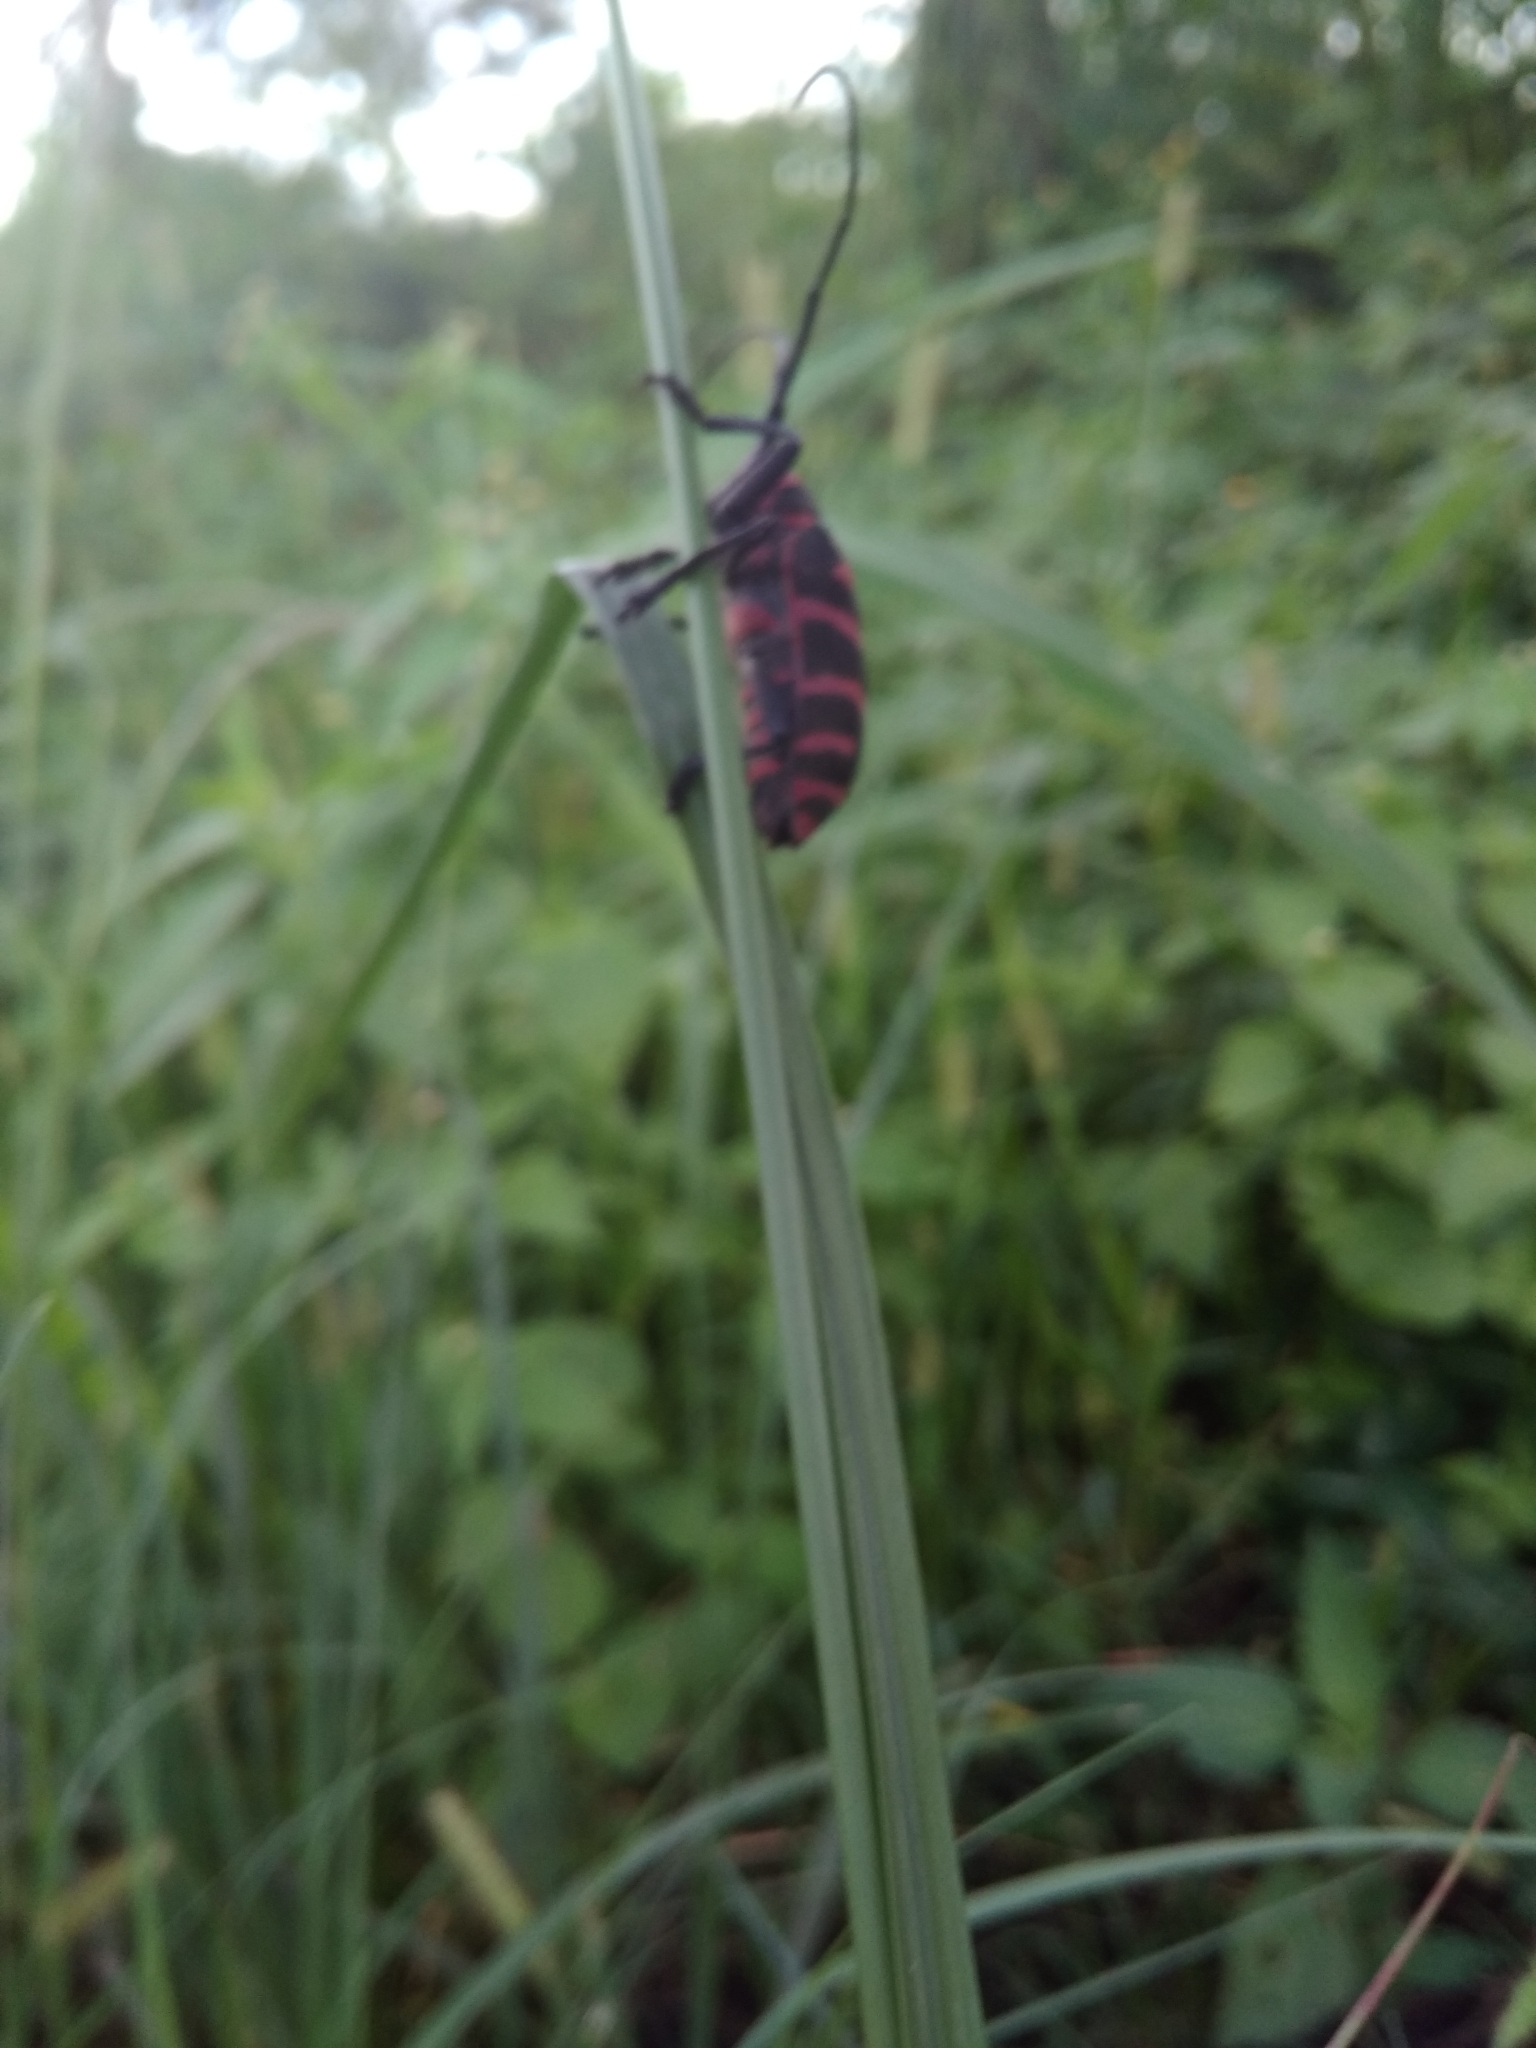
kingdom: Animalia
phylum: Arthropoda
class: Insecta
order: Coleoptera
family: Cerambycidae
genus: Ceroplesis
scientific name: Ceroplesis poggei
